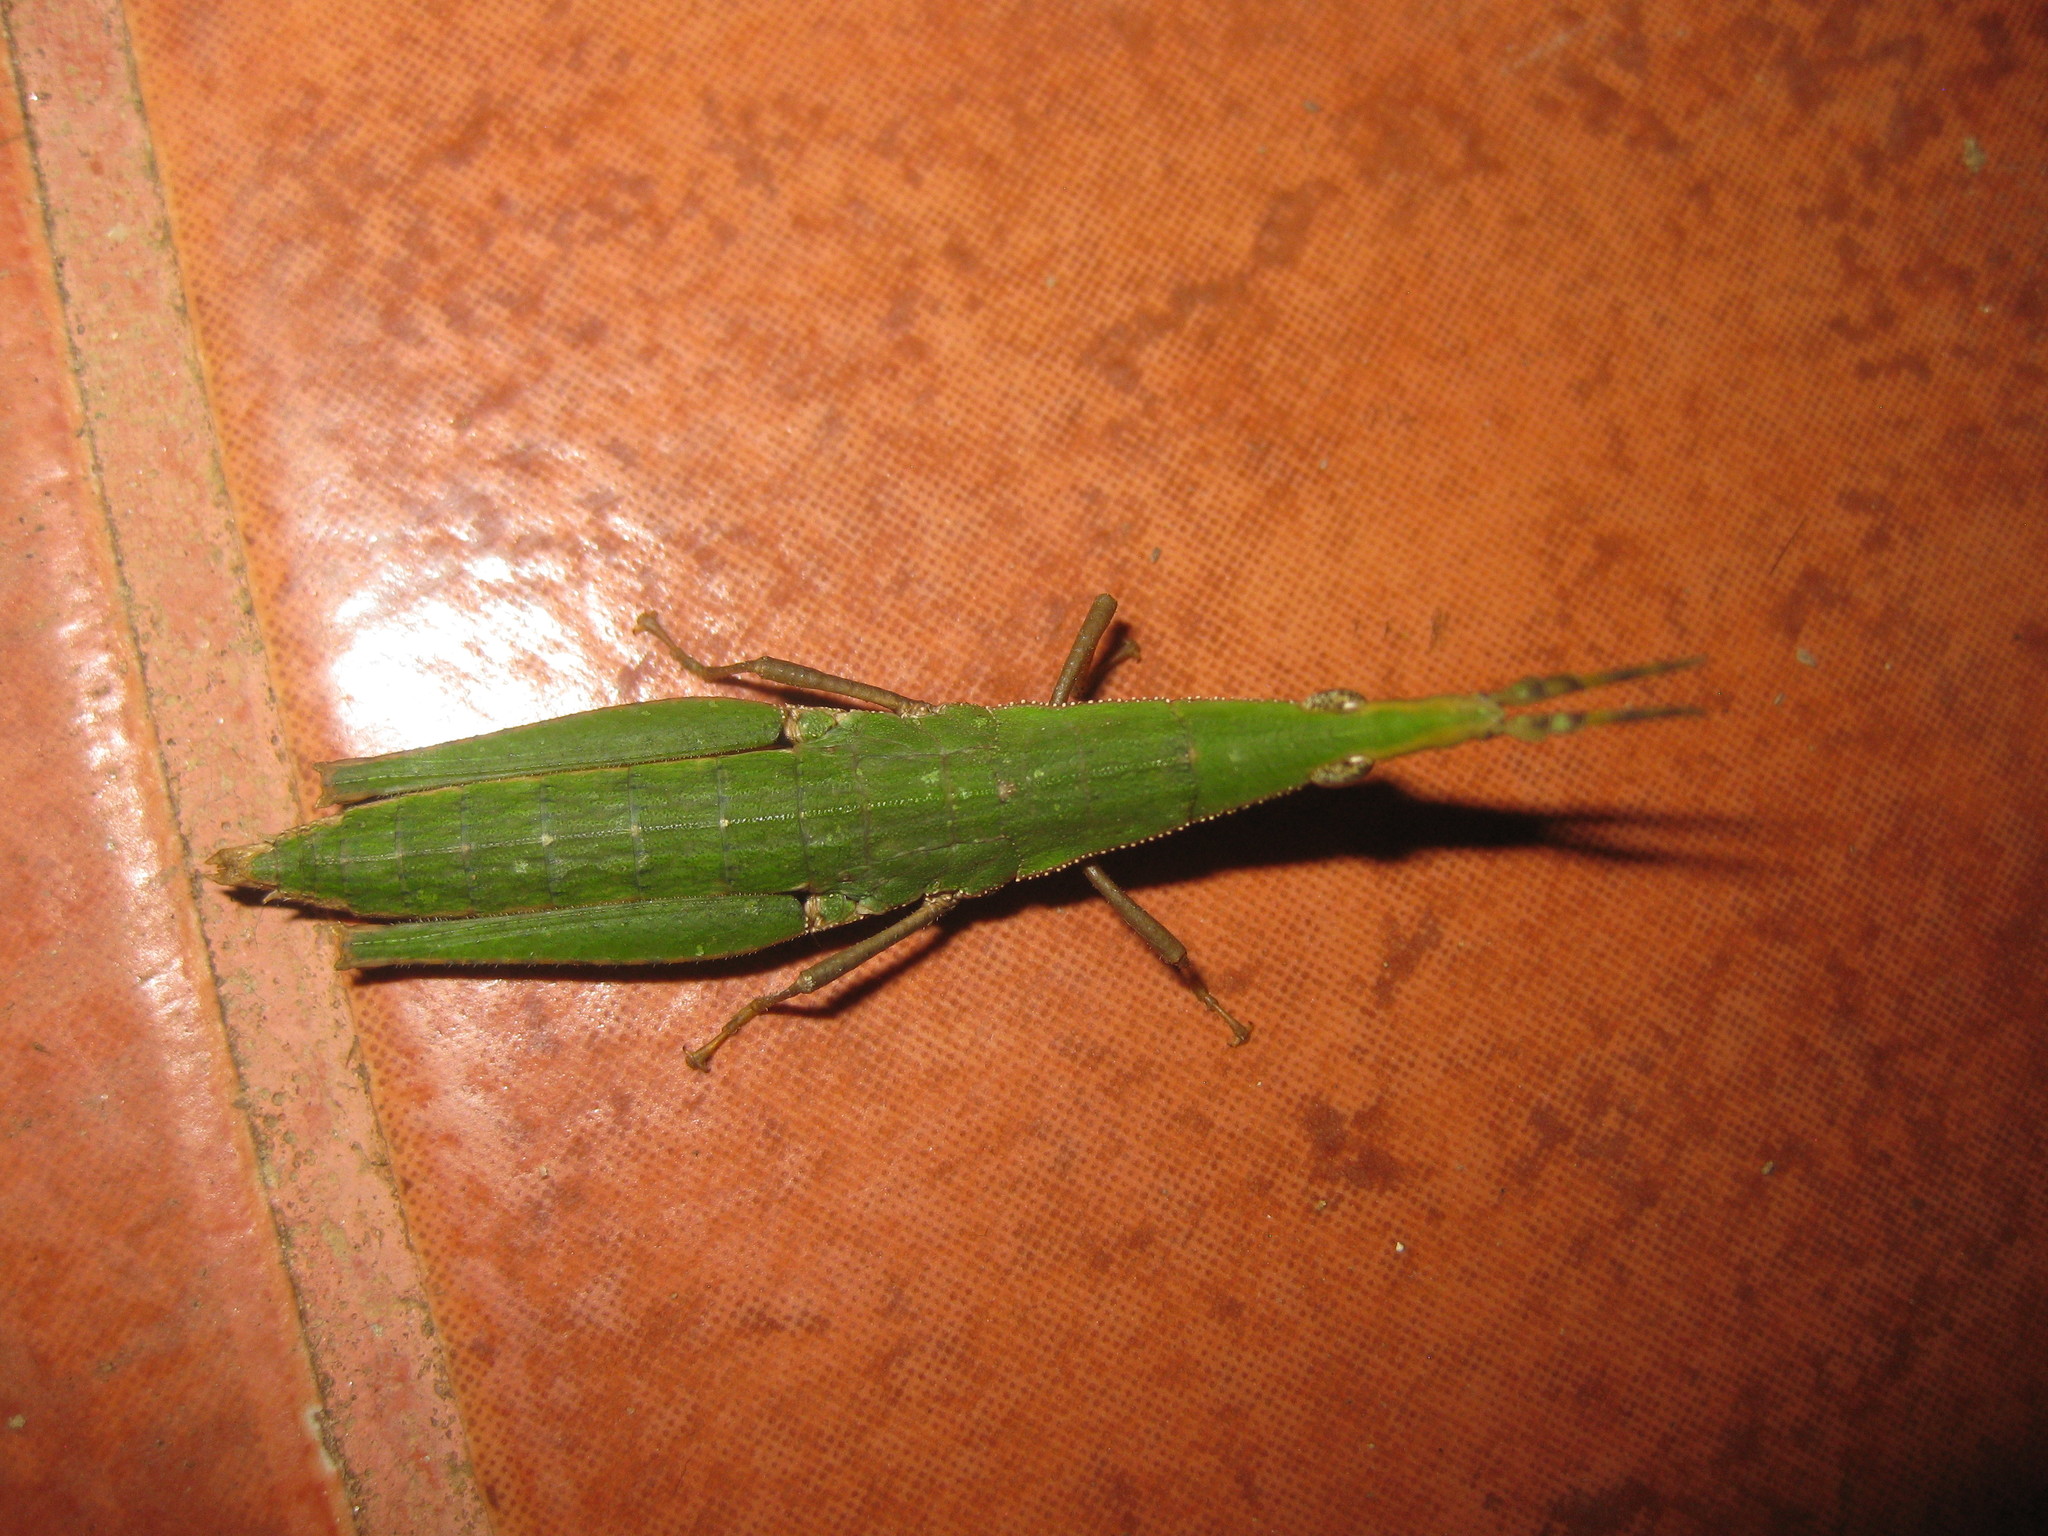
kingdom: Animalia
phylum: Arthropoda
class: Insecta
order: Orthoptera
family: Pyrgomorphidae
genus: Omura
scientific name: Omura congrua
